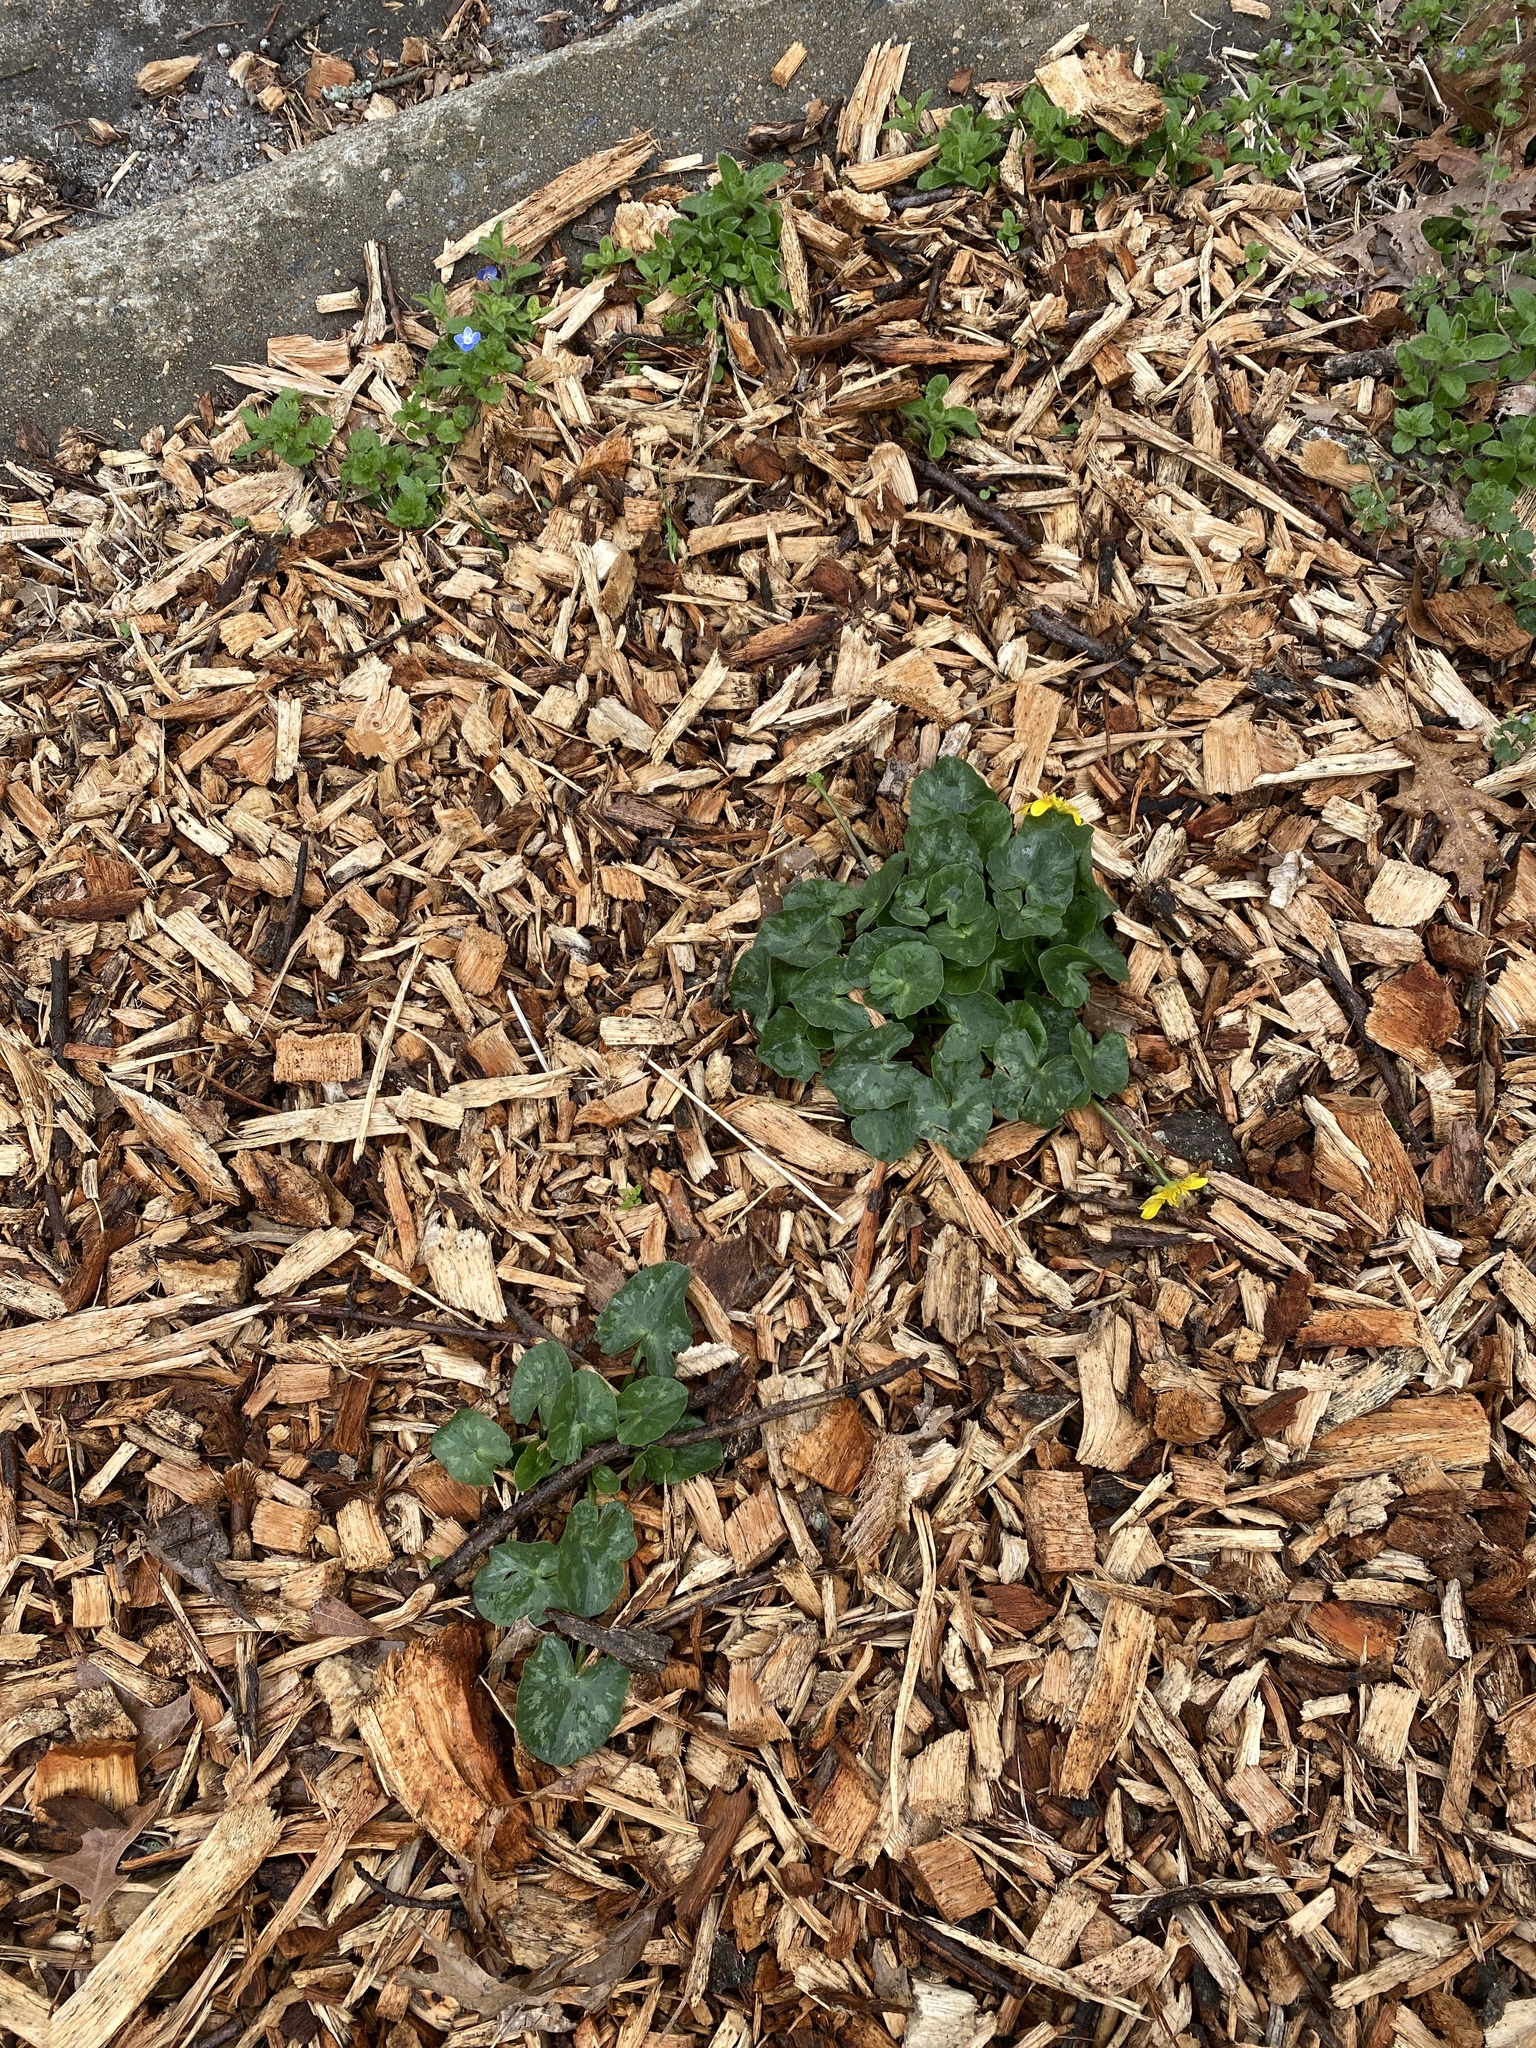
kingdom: Plantae
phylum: Tracheophyta
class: Magnoliopsida
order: Ranunculales
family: Ranunculaceae
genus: Ficaria
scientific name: Ficaria verna
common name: Lesser celandine
